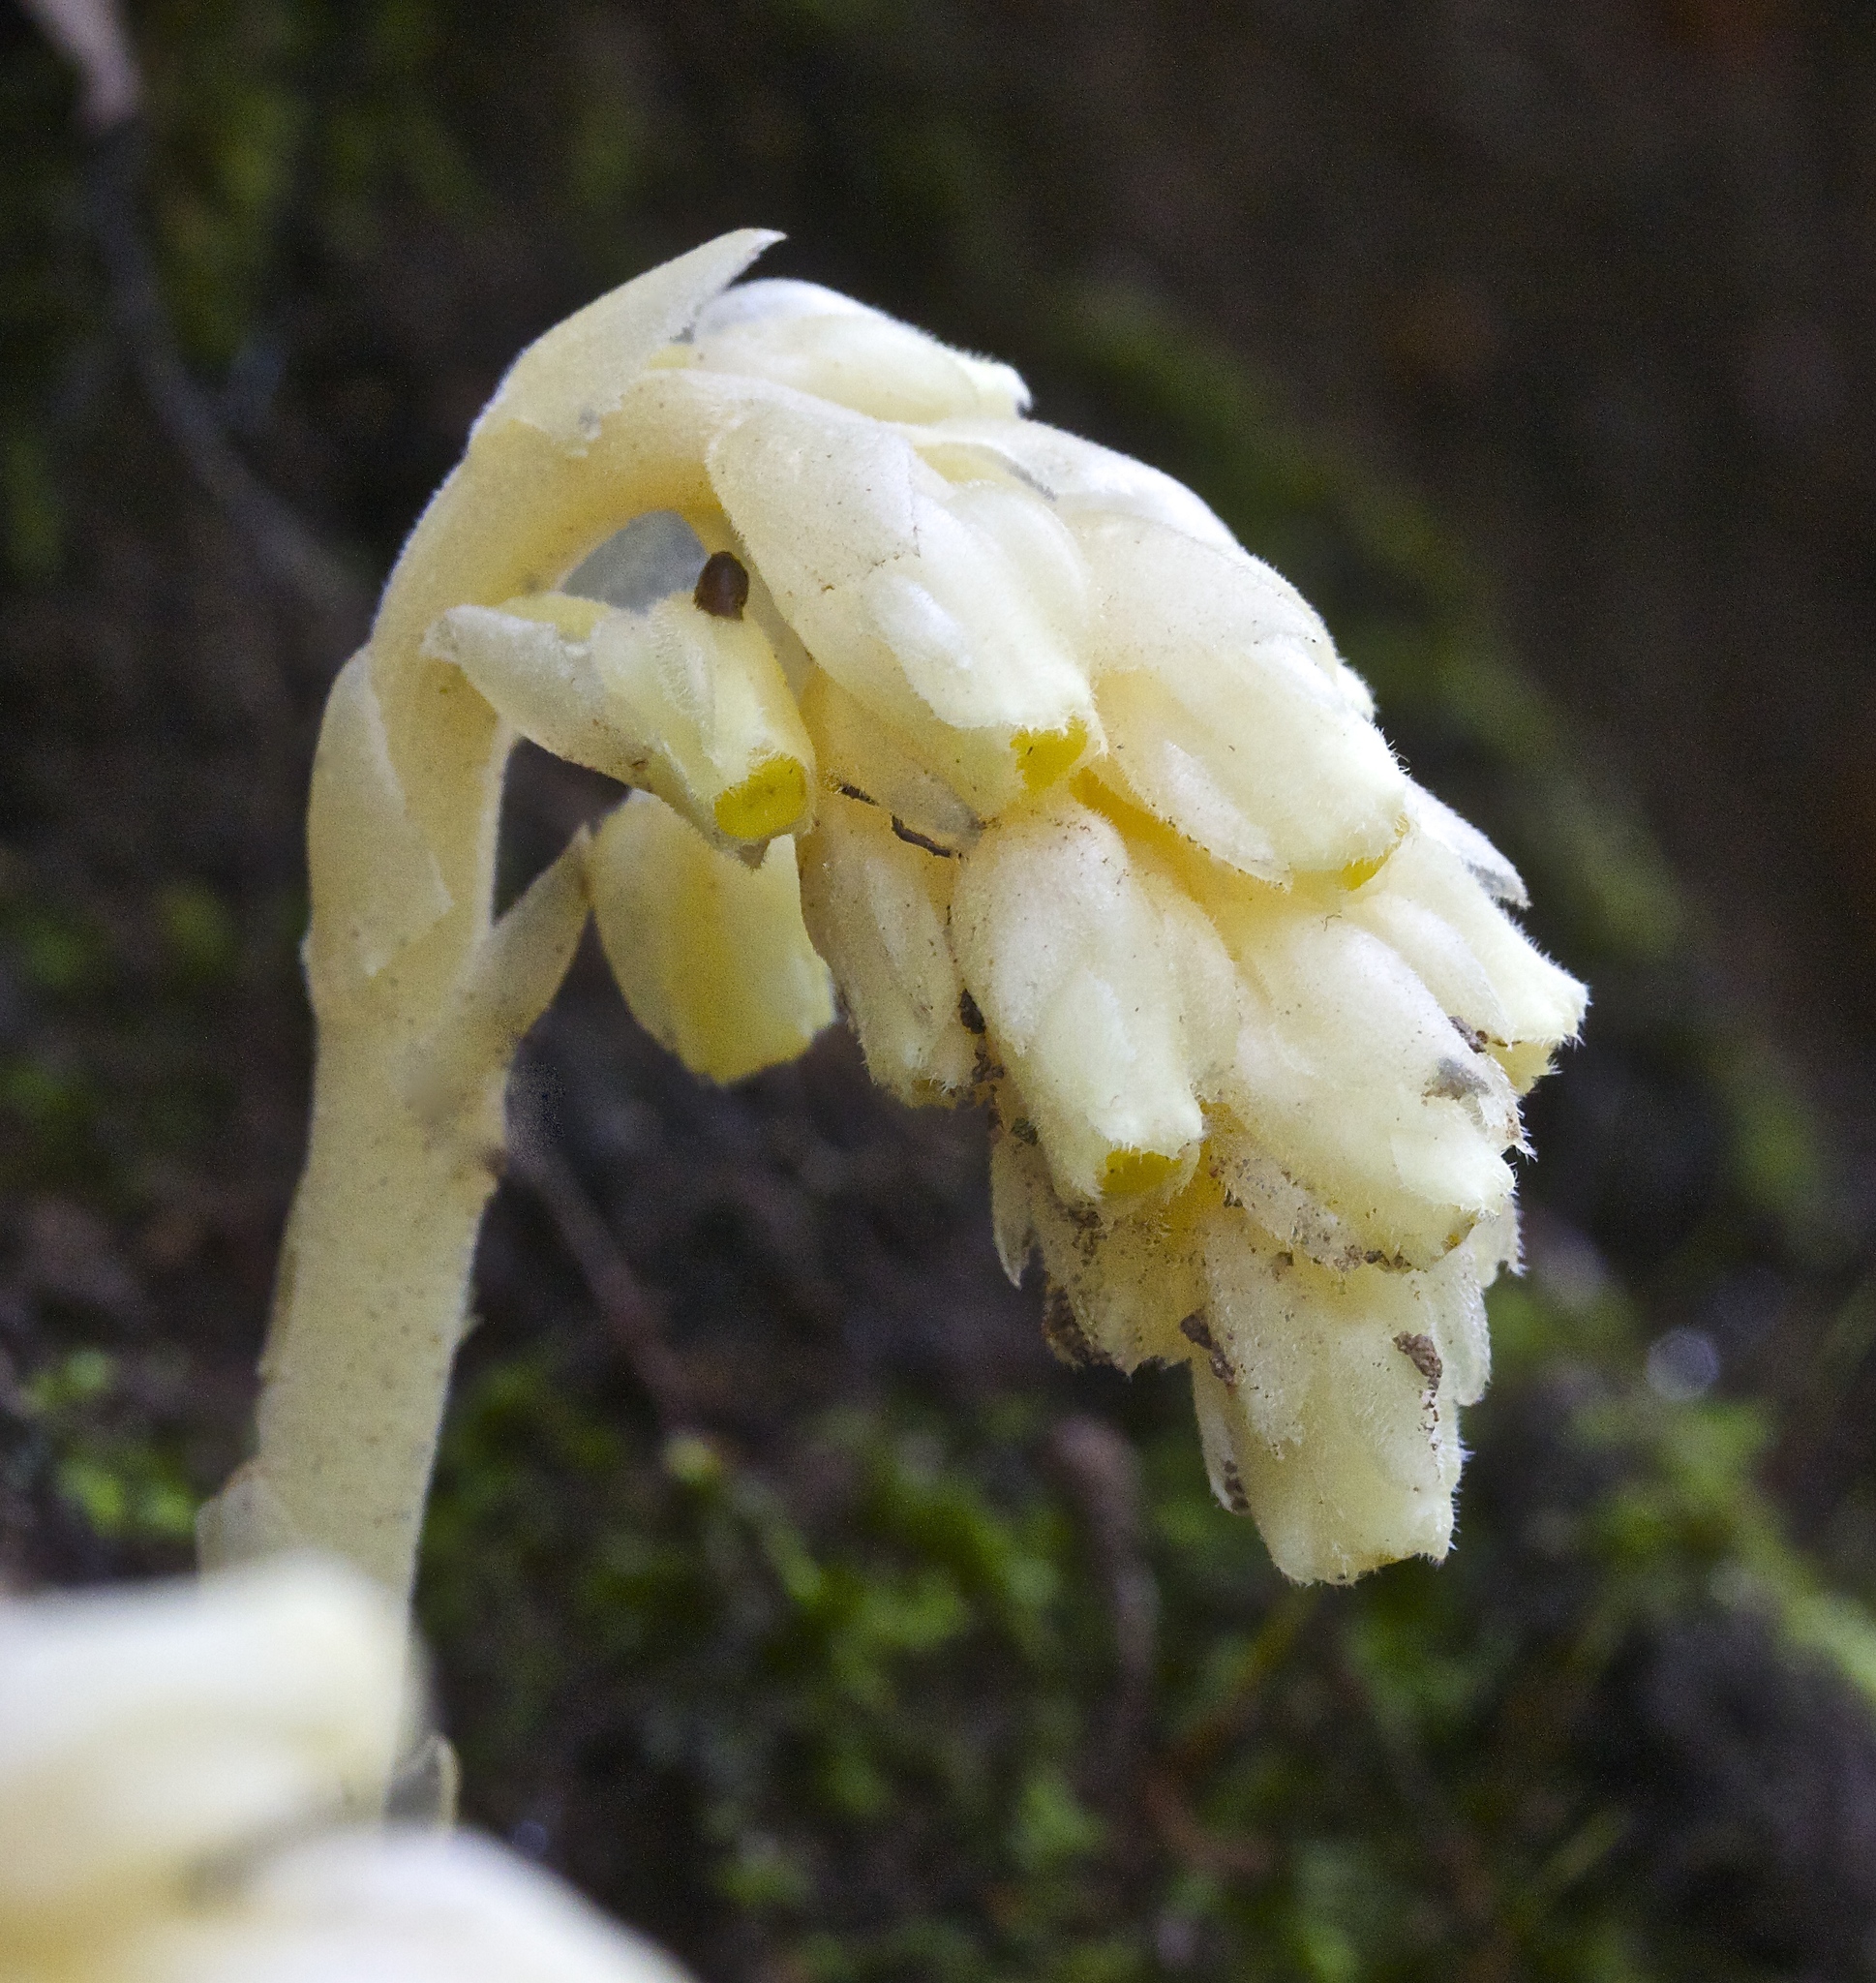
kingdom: Plantae
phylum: Tracheophyta
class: Magnoliopsida
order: Ericales
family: Ericaceae
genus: Hypopitys
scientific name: Hypopitys monotropa
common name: Yellow bird's-nest
